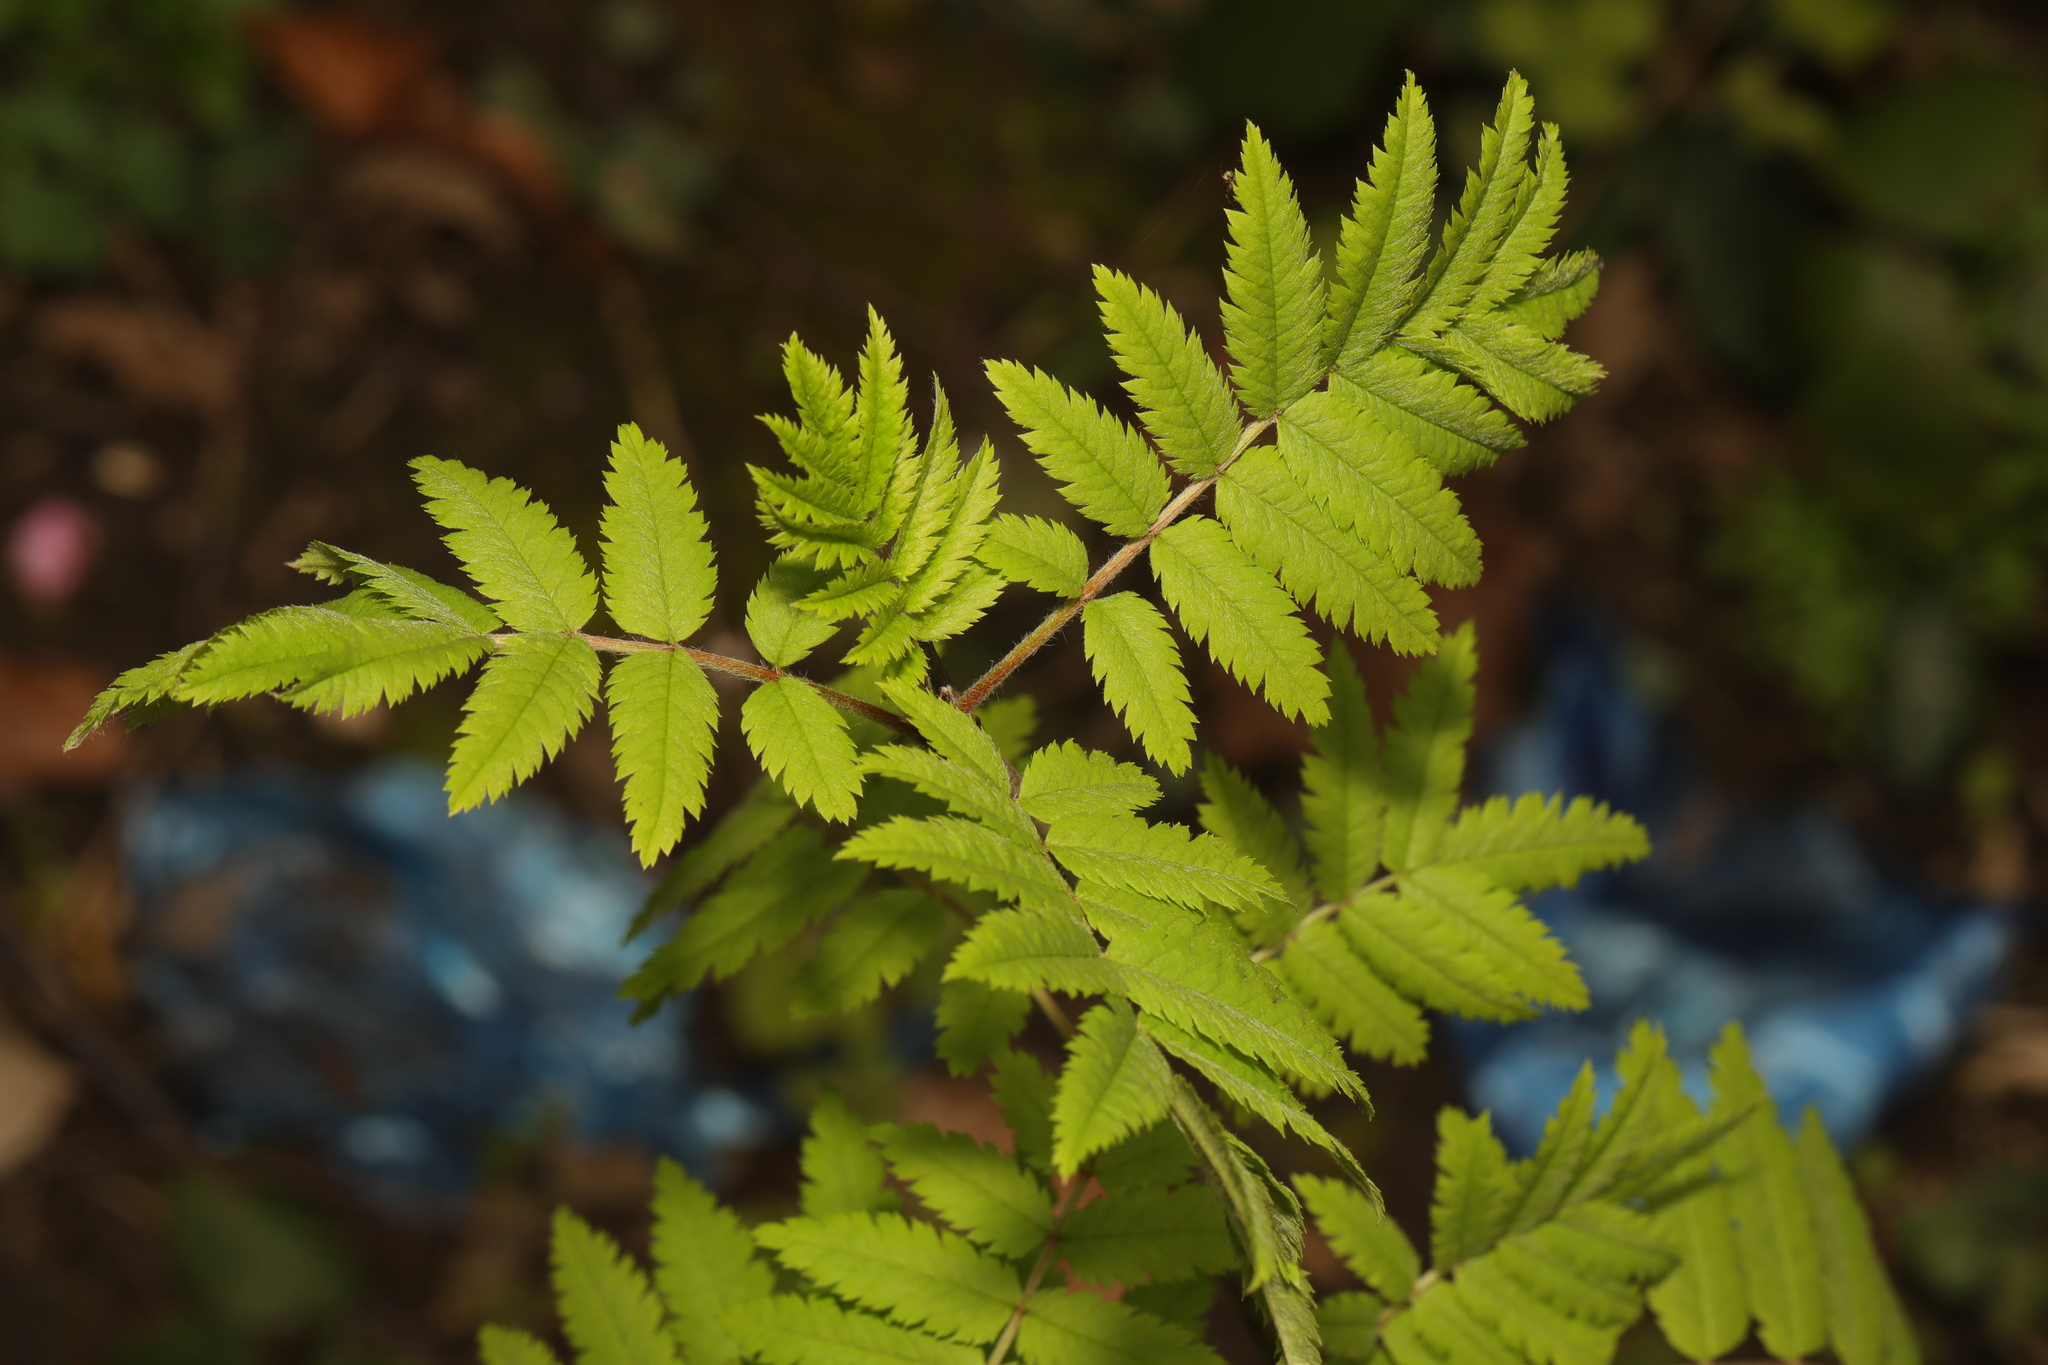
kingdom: Plantae
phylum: Tracheophyta
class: Magnoliopsida
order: Rosales
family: Rosaceae
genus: Sorbus
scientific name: Sorbus aucuparia
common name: Rowan
